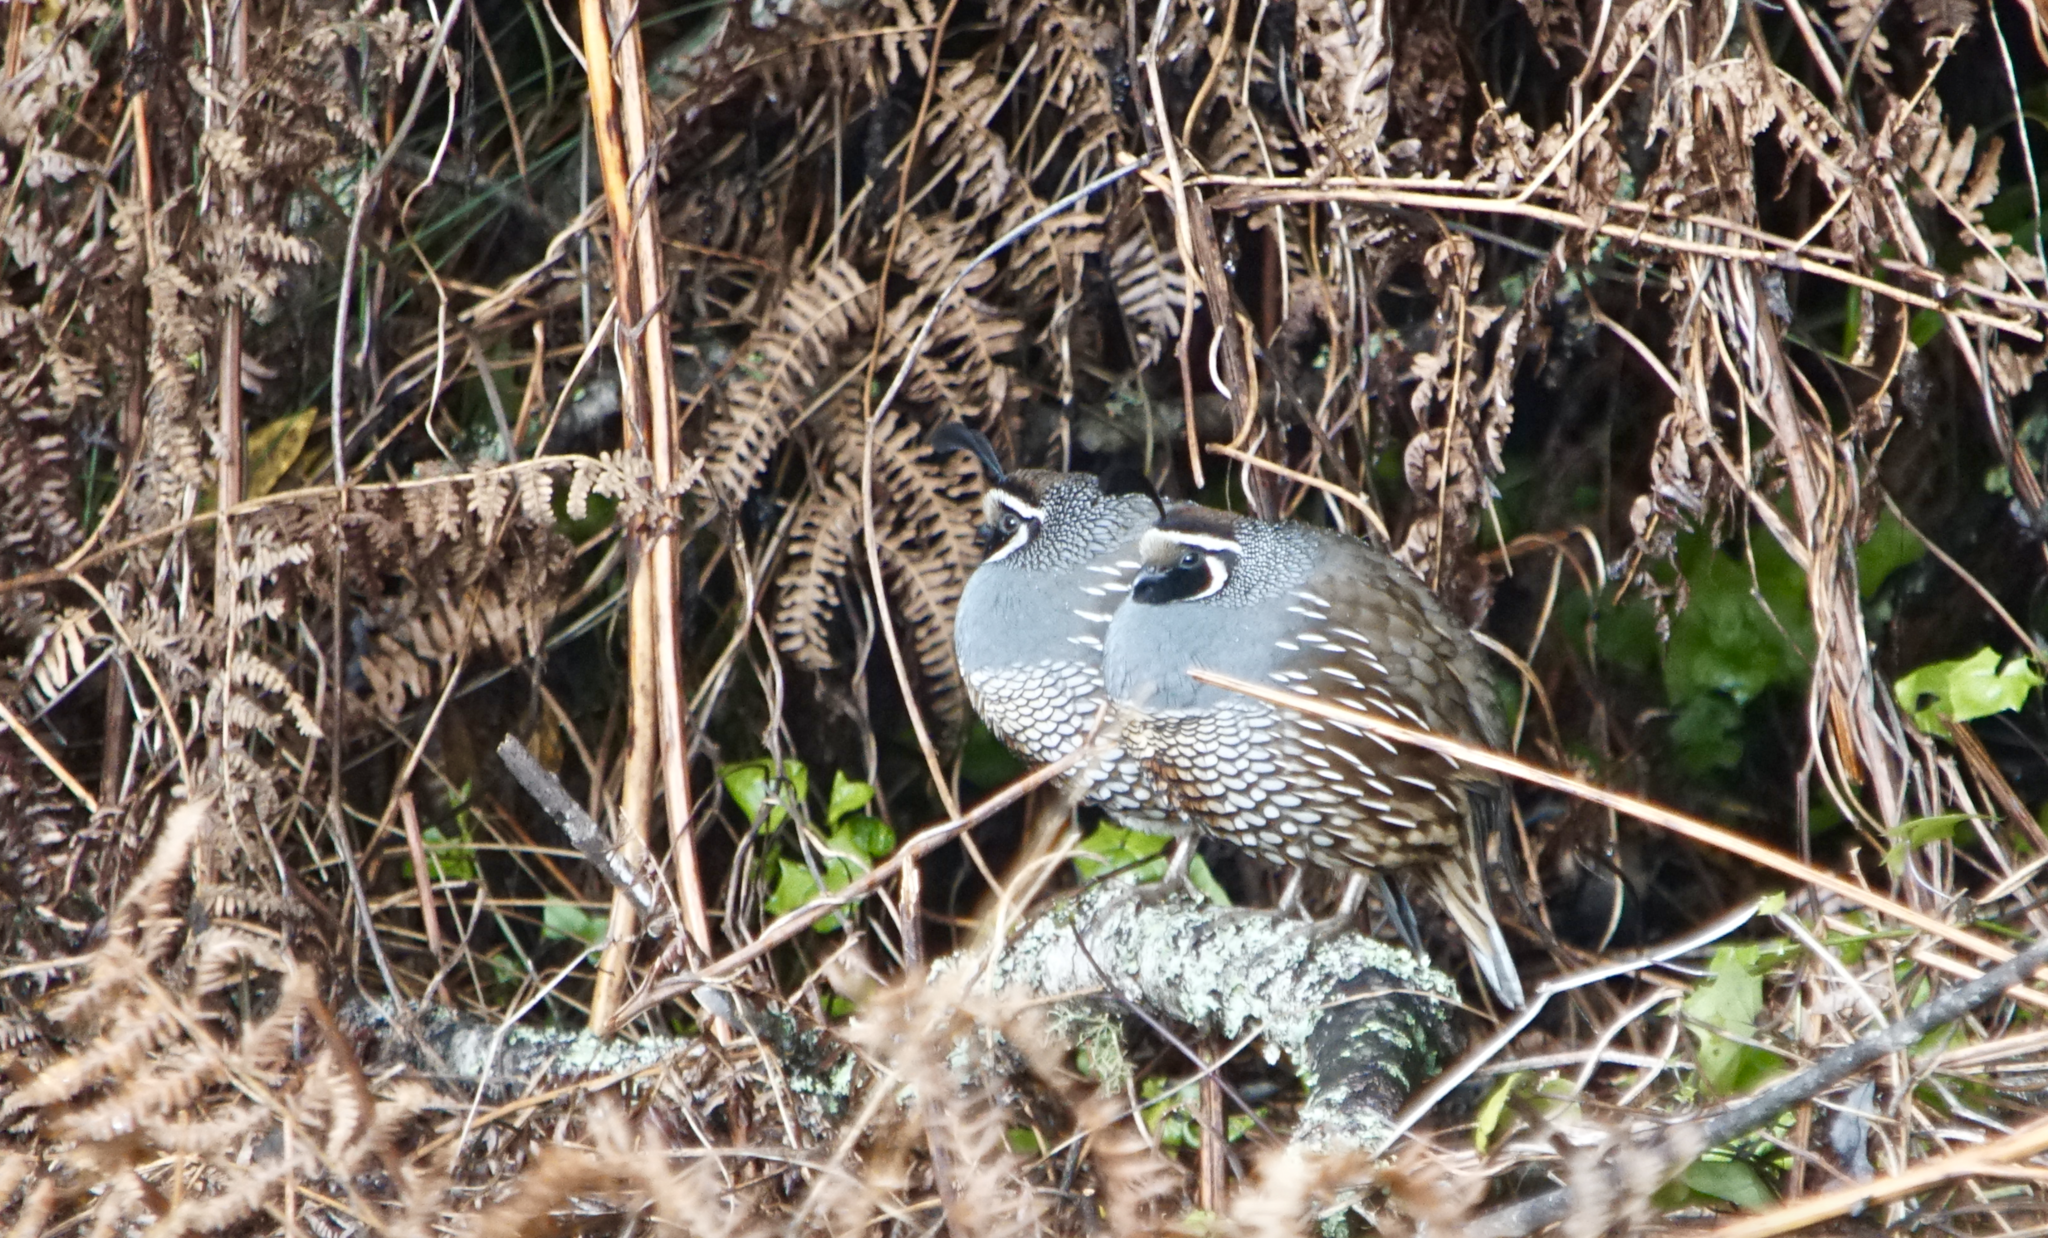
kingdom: Animalia
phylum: Chordata
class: Aves
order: Galliformes
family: Odontophoridae
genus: Callipepla
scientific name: Callipepla californica
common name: California quail
